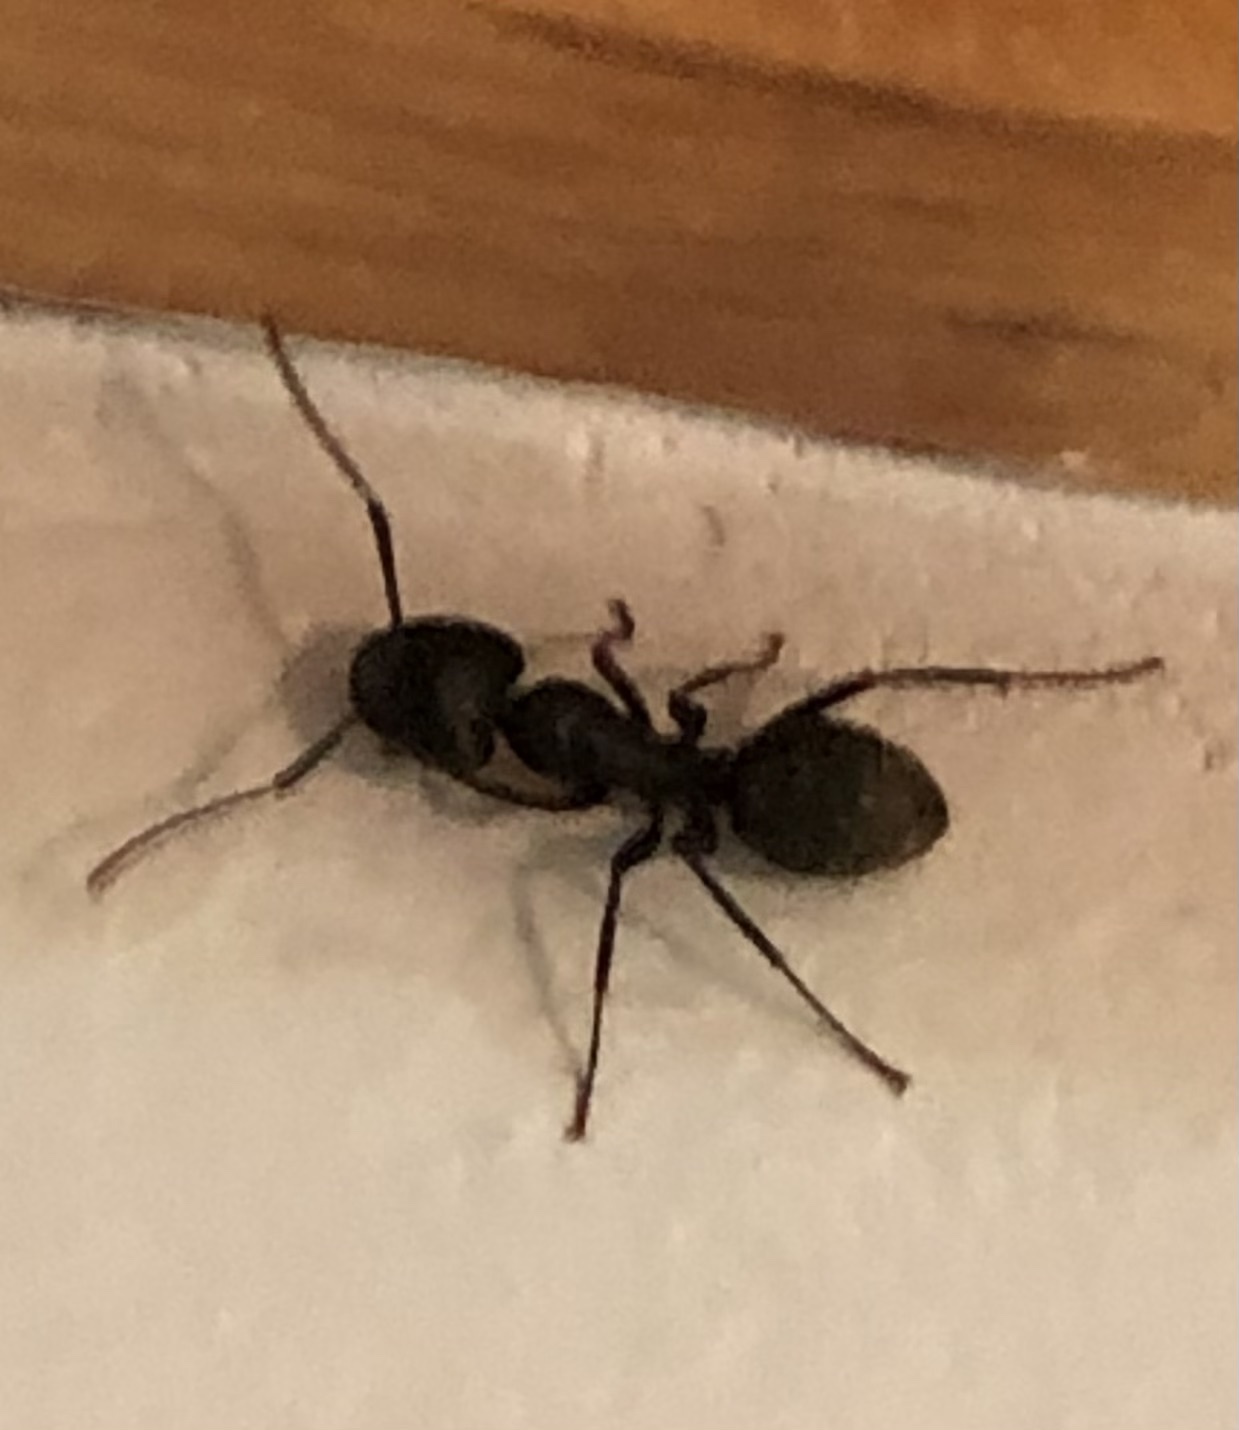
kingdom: Animalia
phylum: Arthropoda
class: Insecta
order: Hymenoptera
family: Formicidae
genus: Camponotus
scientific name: Camponotus pennsylvanicus
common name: Black carpenter ant
